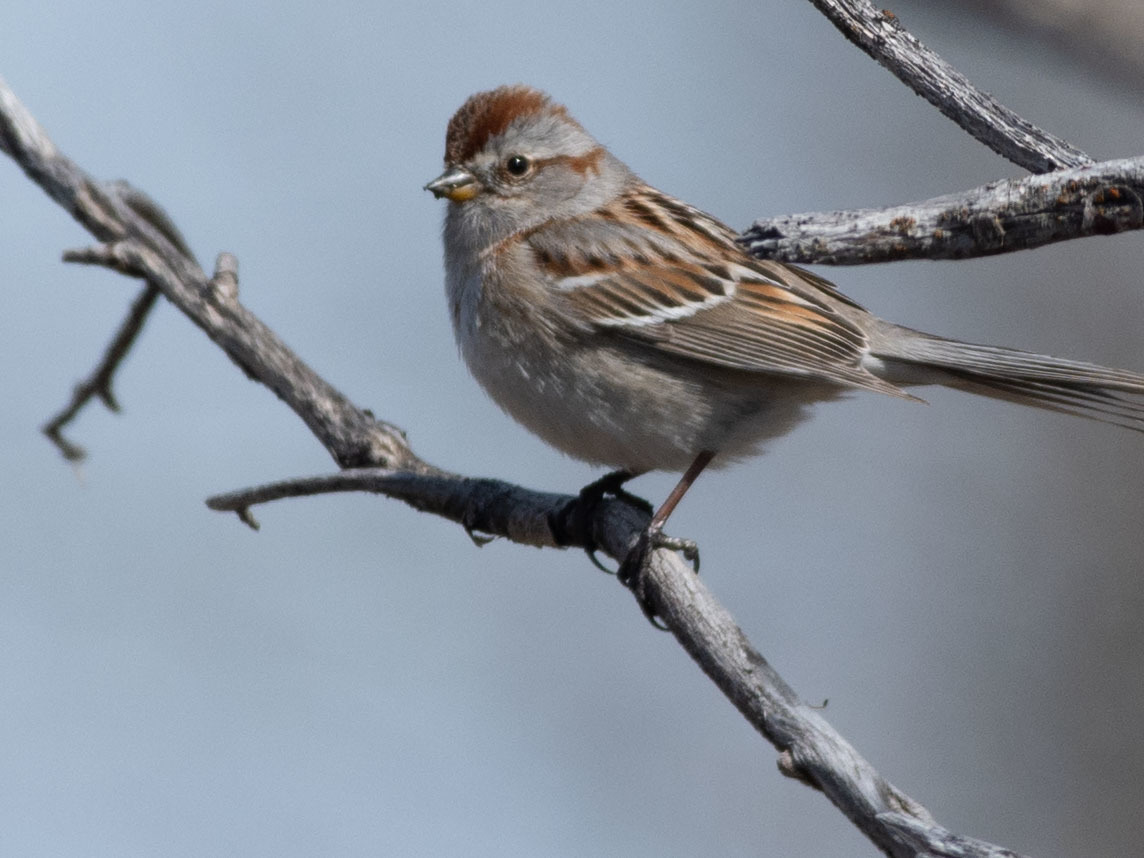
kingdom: Animalia
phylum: Chordata
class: Aves
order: Passeriformes
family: Passerellidae
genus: Spizelloides
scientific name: Spizelloides arborea
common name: American tree sparrow
